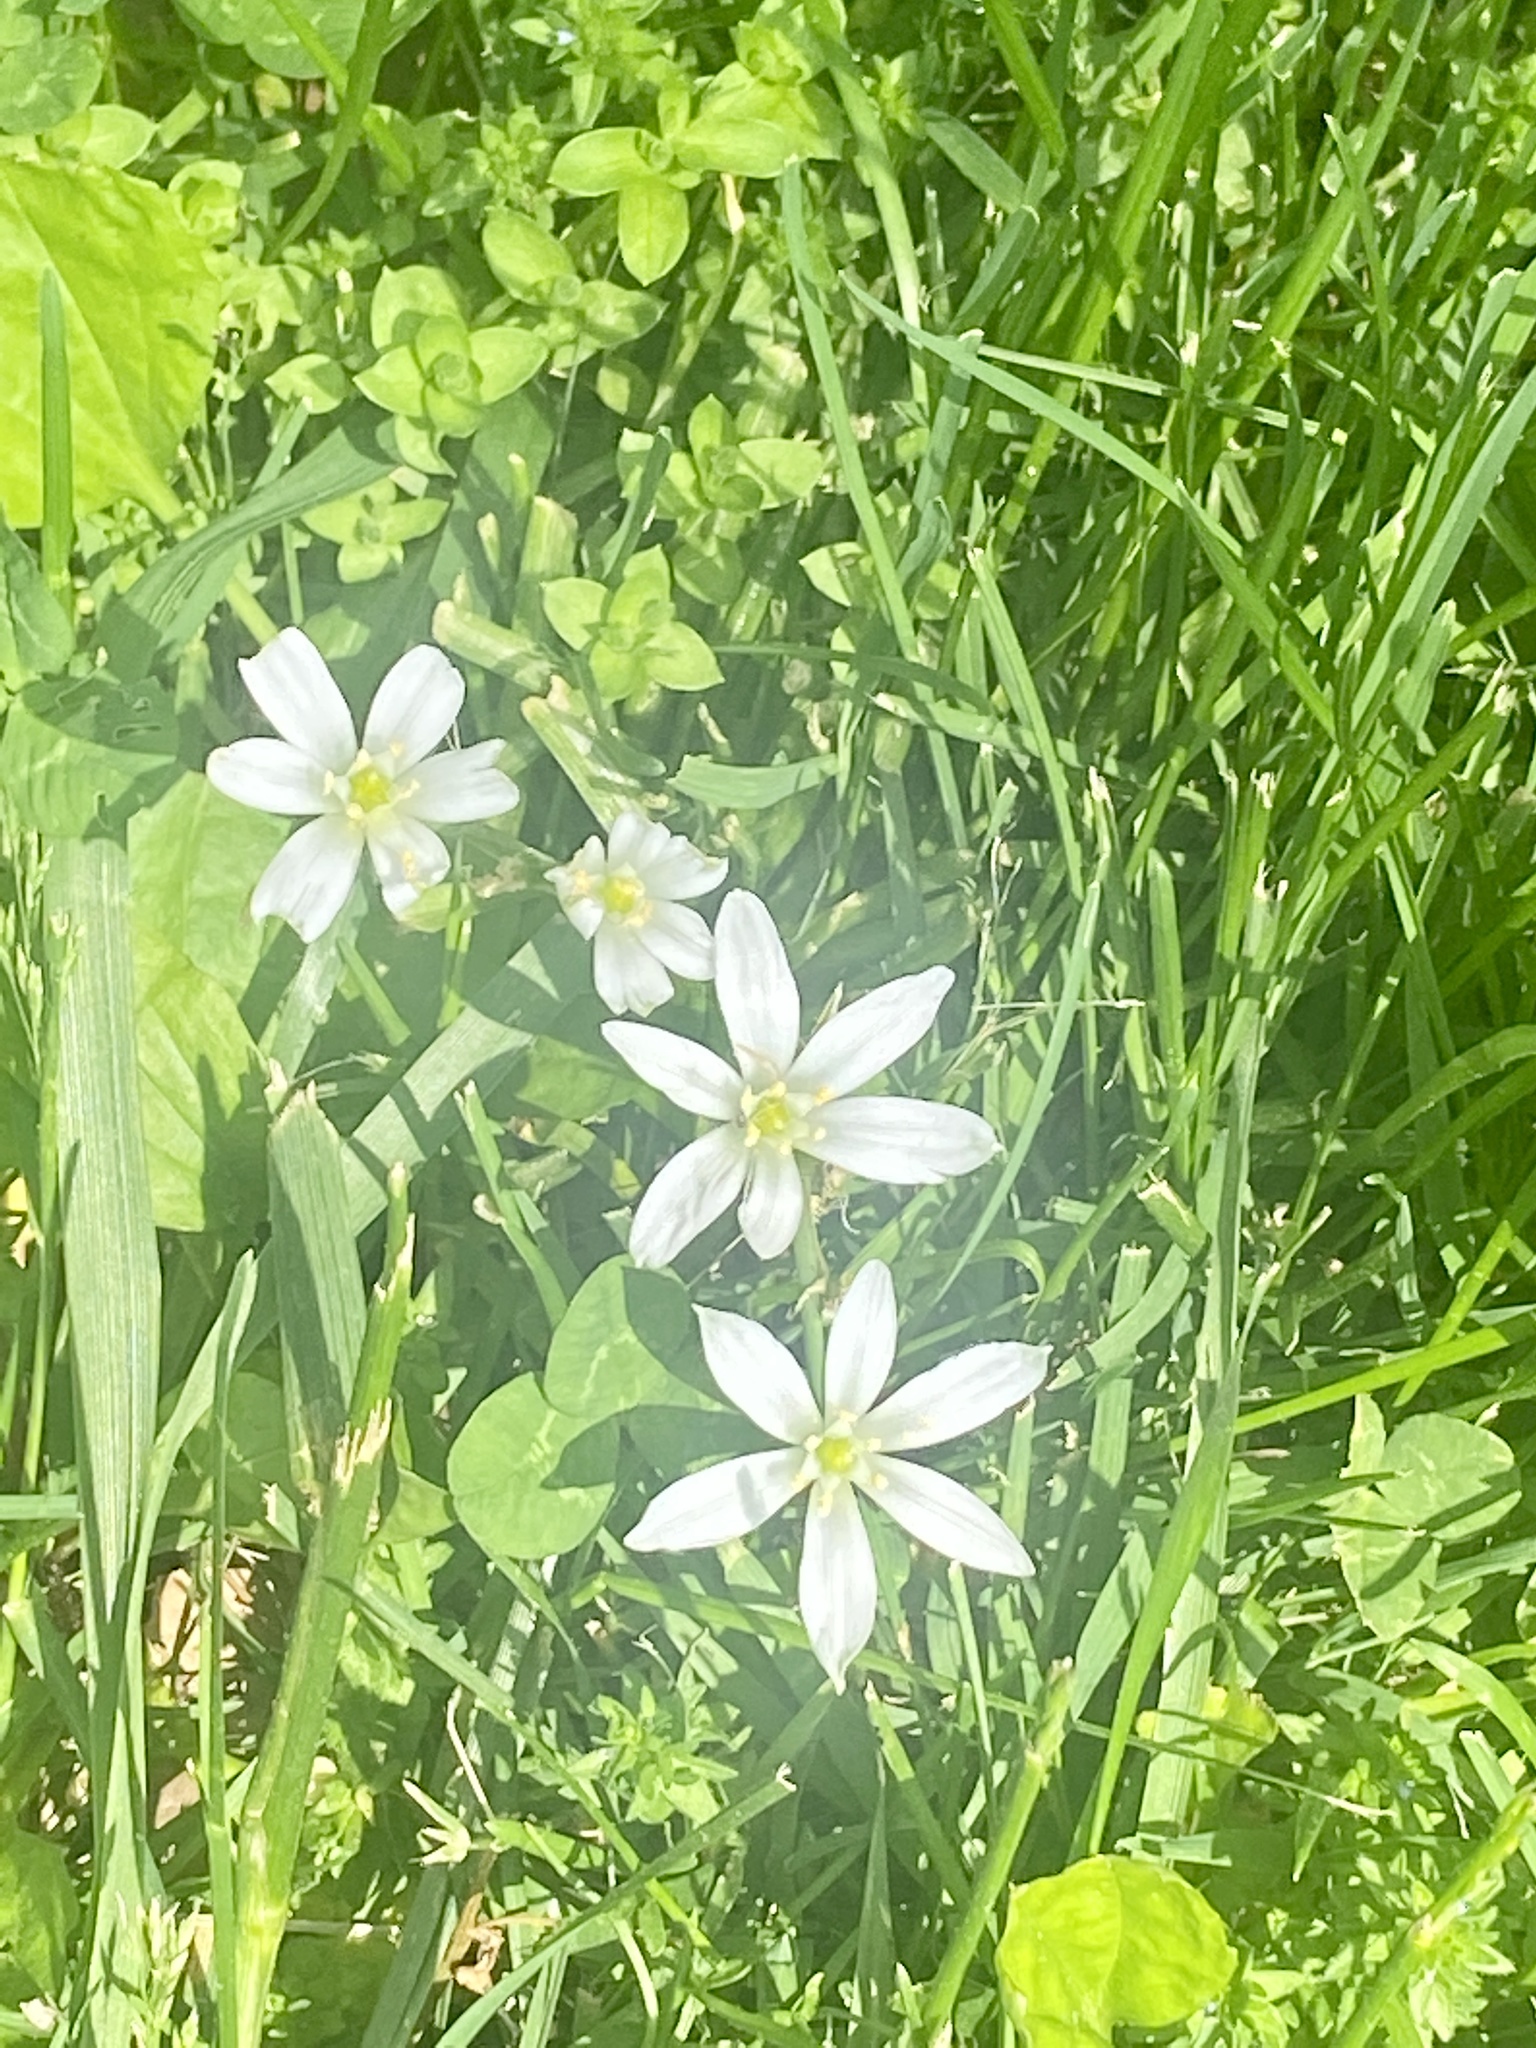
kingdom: Plantae
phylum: Tracheophyta
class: Liliopsida
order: Asparagales
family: Asparagaceae
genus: Ornithogalum
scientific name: Ornithogalum umbellatum
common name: Garden star-of-bethlehem
